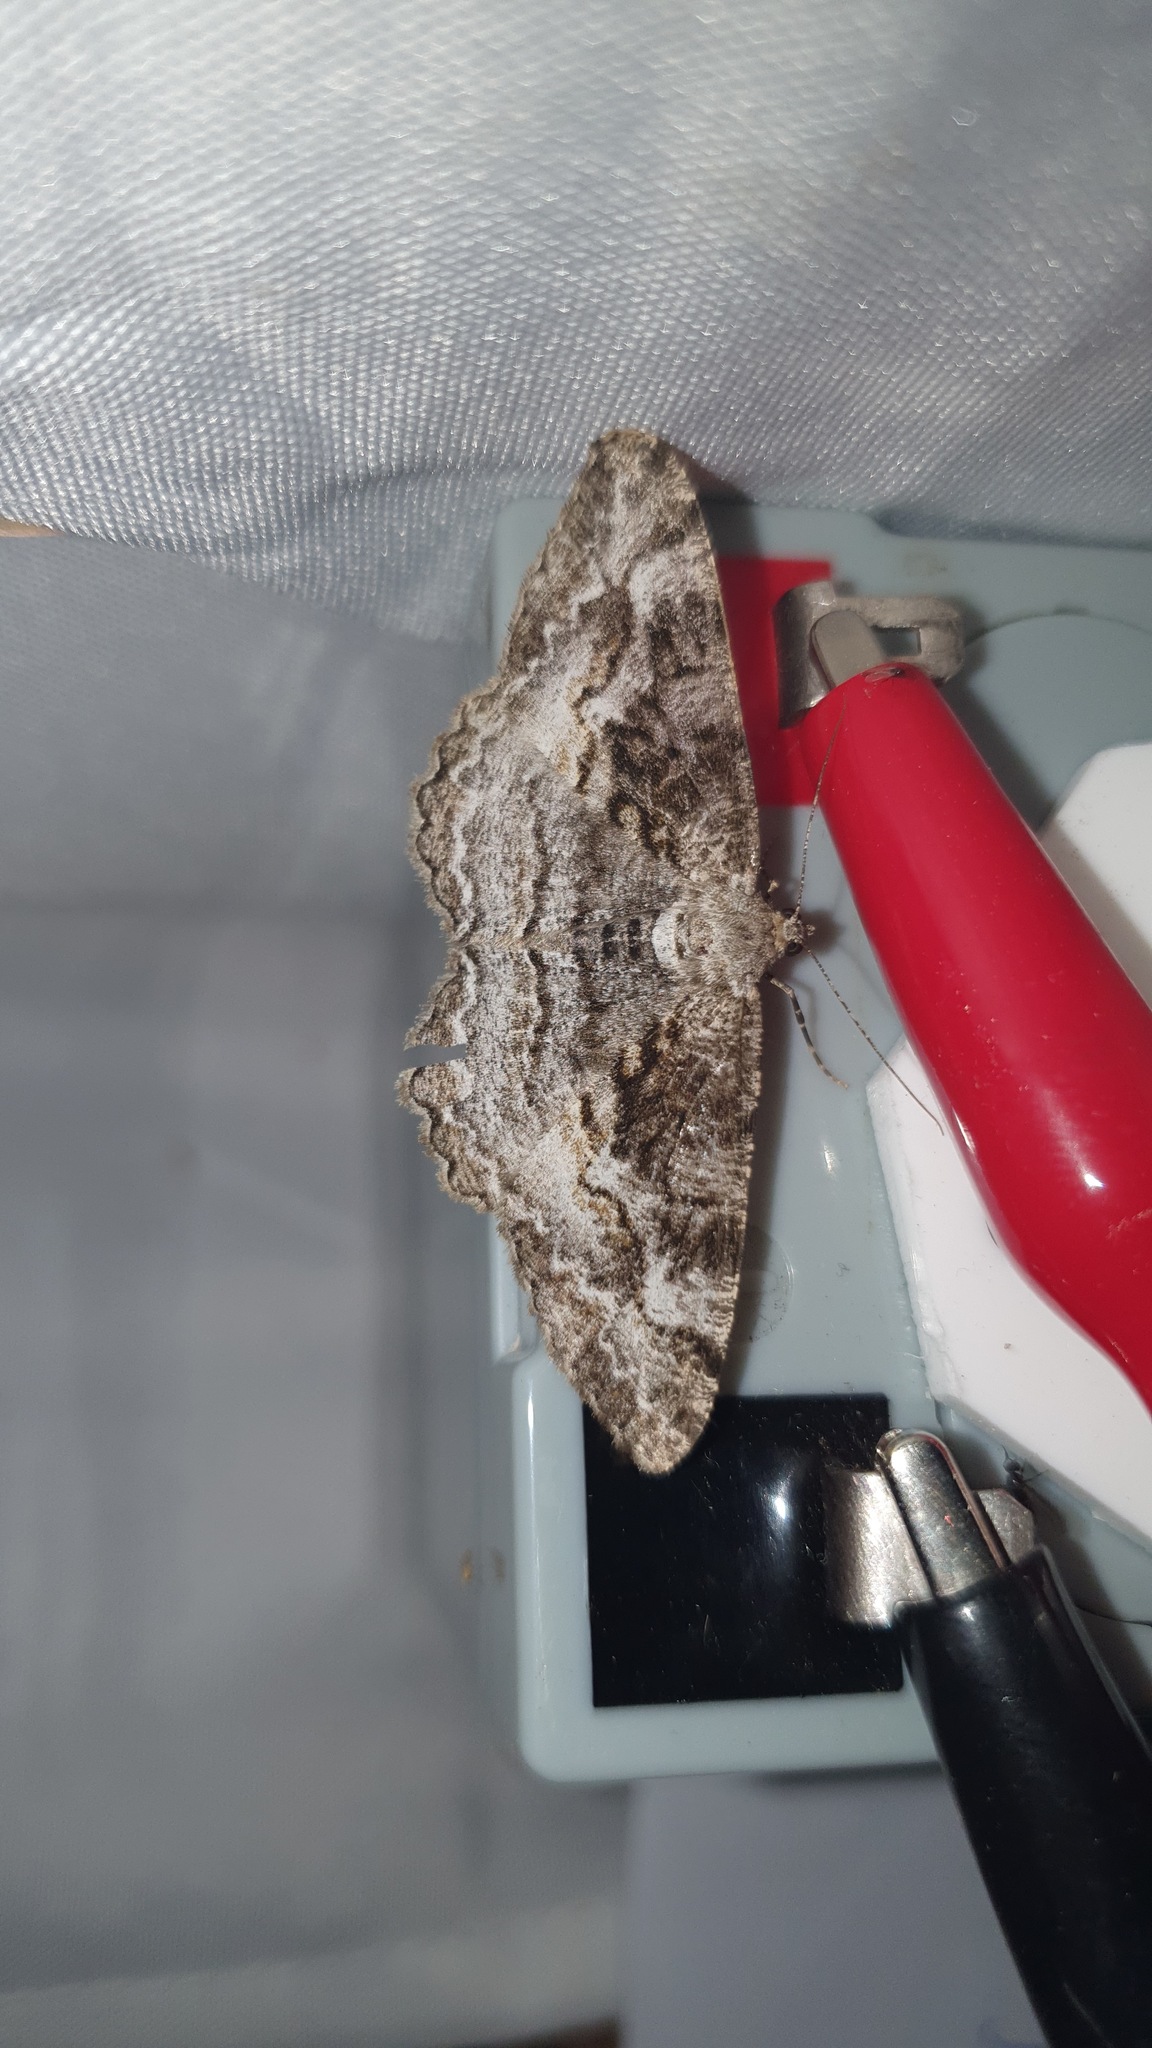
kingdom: Animalia
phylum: Arthropoda
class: Insecta
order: Lepidoptera
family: Geometridae
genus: Alcis
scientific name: Alcis repandata
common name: Mottled beauty
